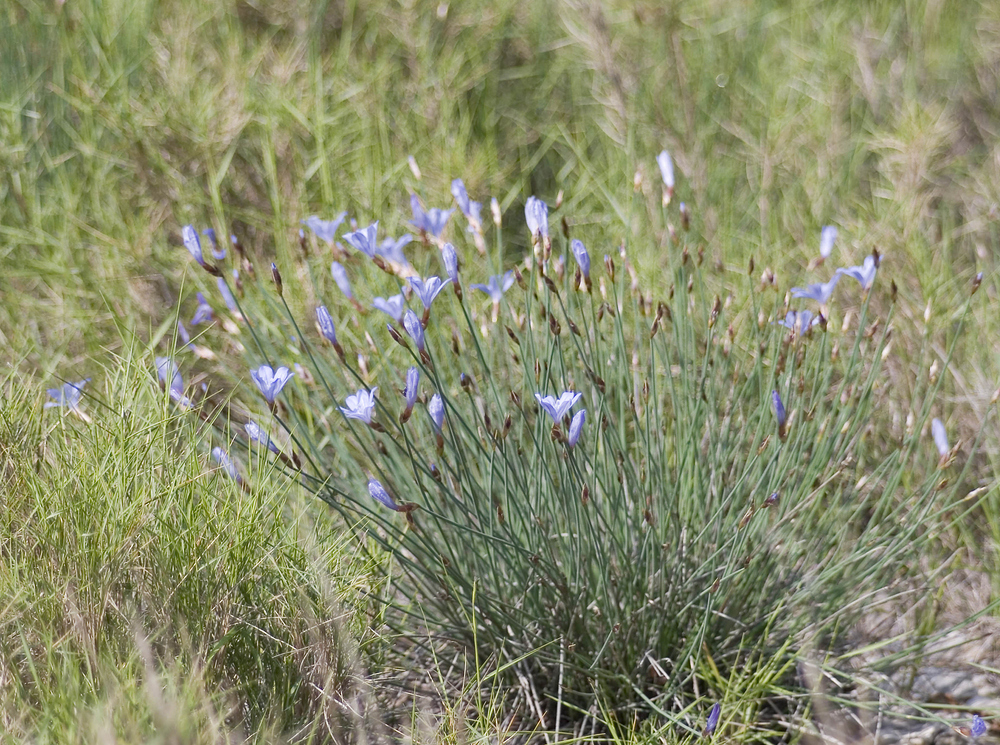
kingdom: Plantae
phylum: Tracheophyta
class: Liliopsida
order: Asparagales
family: Asparagaceae
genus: Aphyllanthes
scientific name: Aphyllanthes monspeliensis
